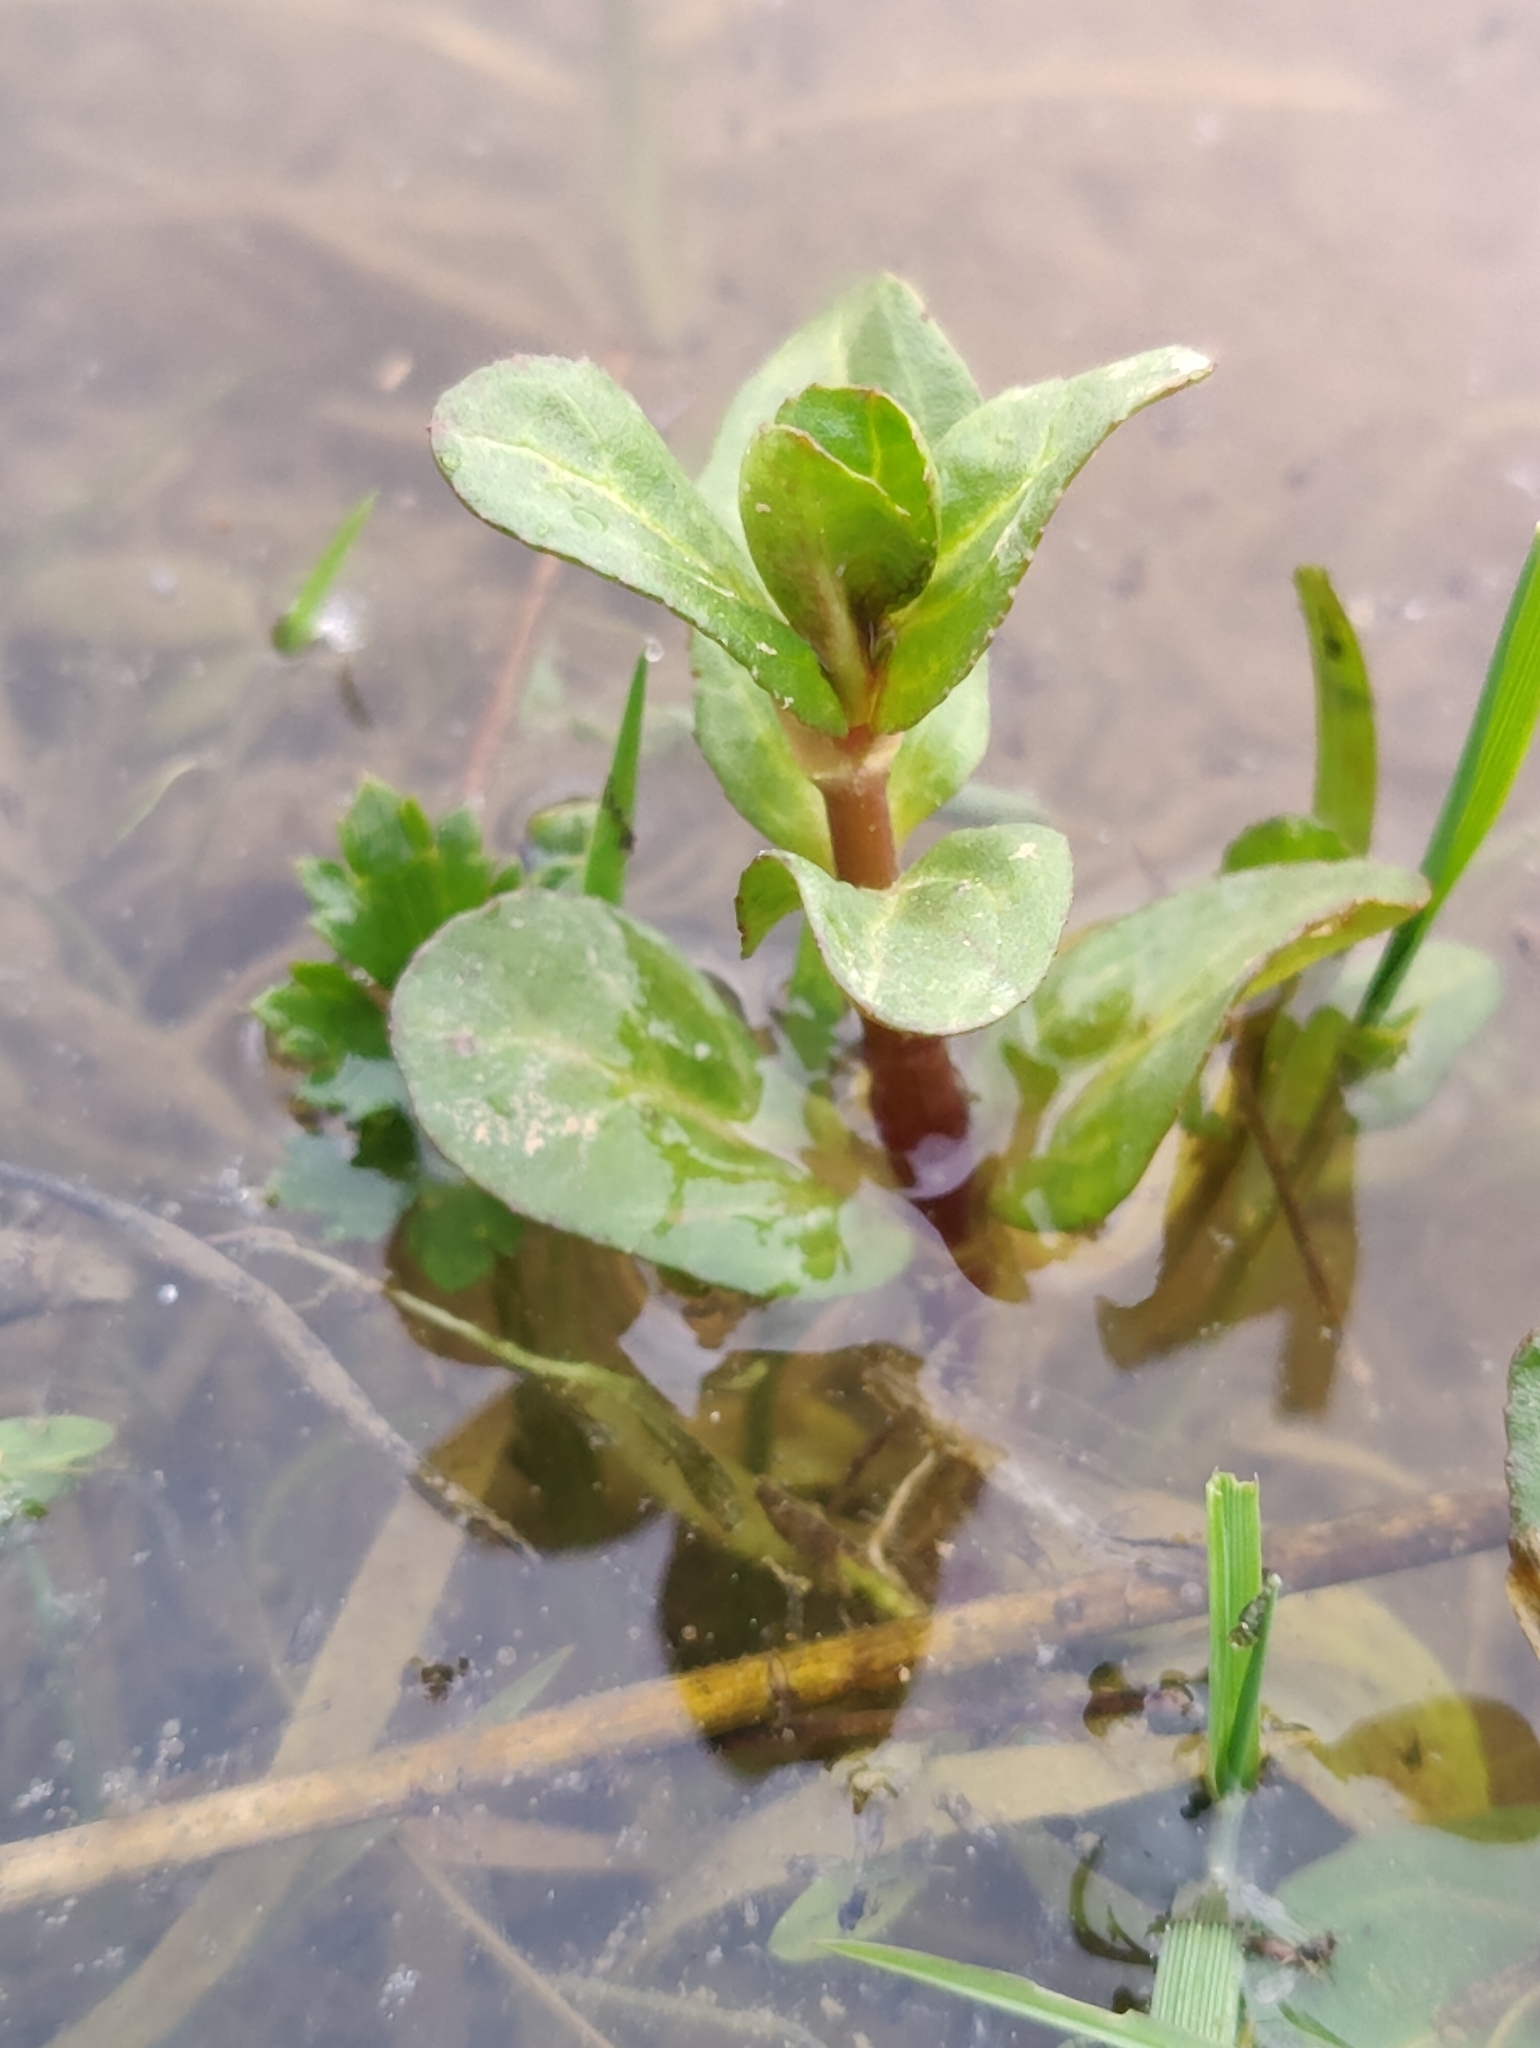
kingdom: Plantae
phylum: Tracheophyta
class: Magnoliopsida
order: Lamiales
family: Plantaginaceae
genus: Veronica
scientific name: Veronica beccabunga
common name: Brooklime
